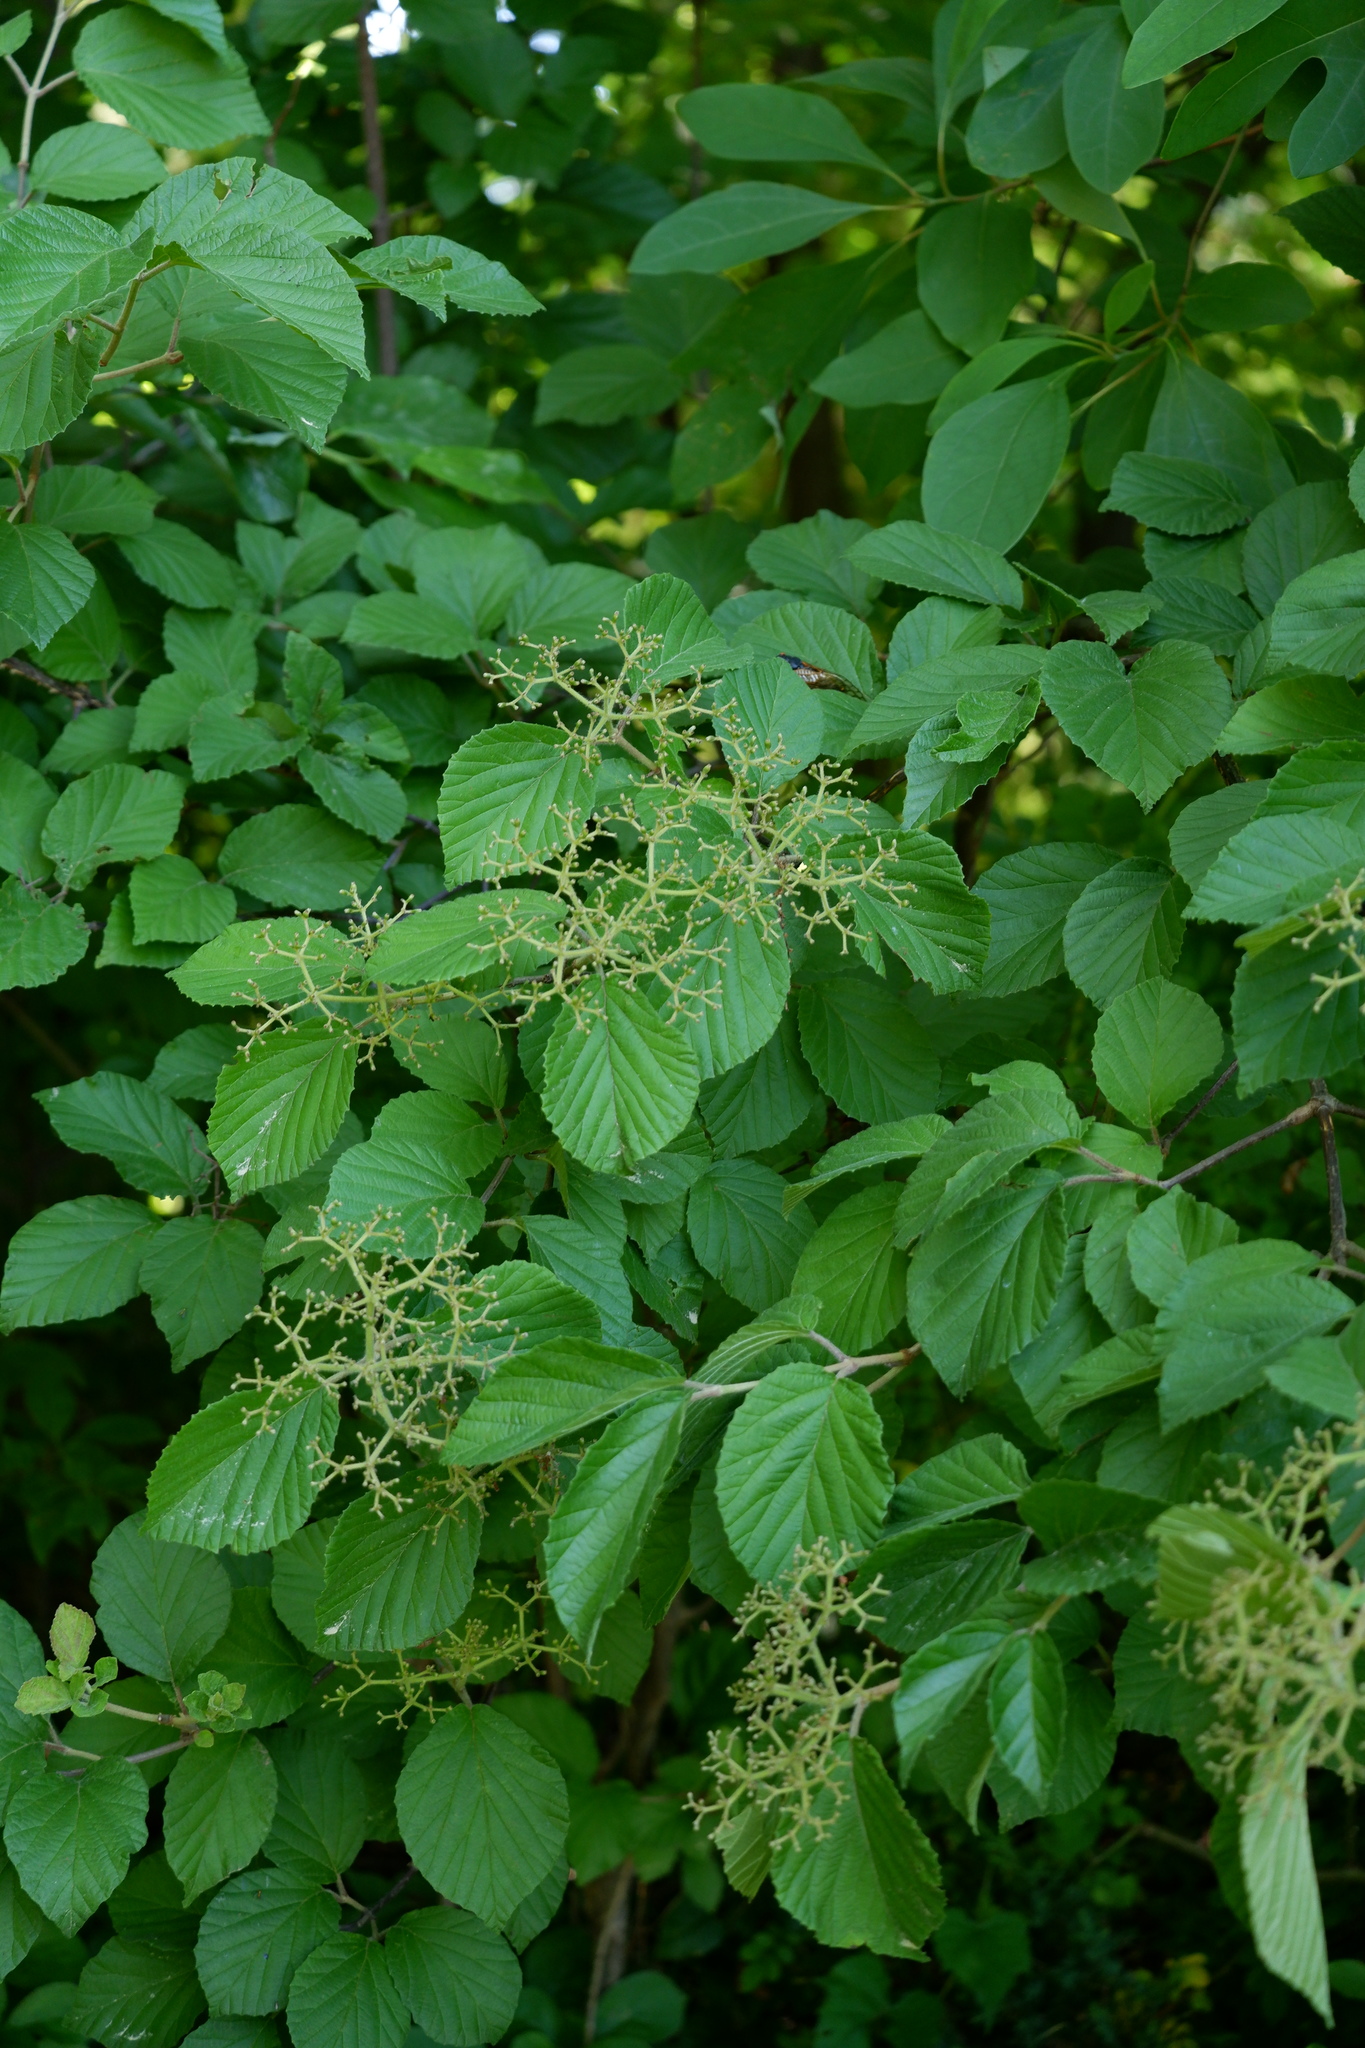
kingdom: Plantae
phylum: Tracheophyta
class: Magnoliopsida
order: Dipsacales
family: Viburnaceae
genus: Viburnum
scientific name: Viburnum dilatatum
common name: Linden arrowwood
